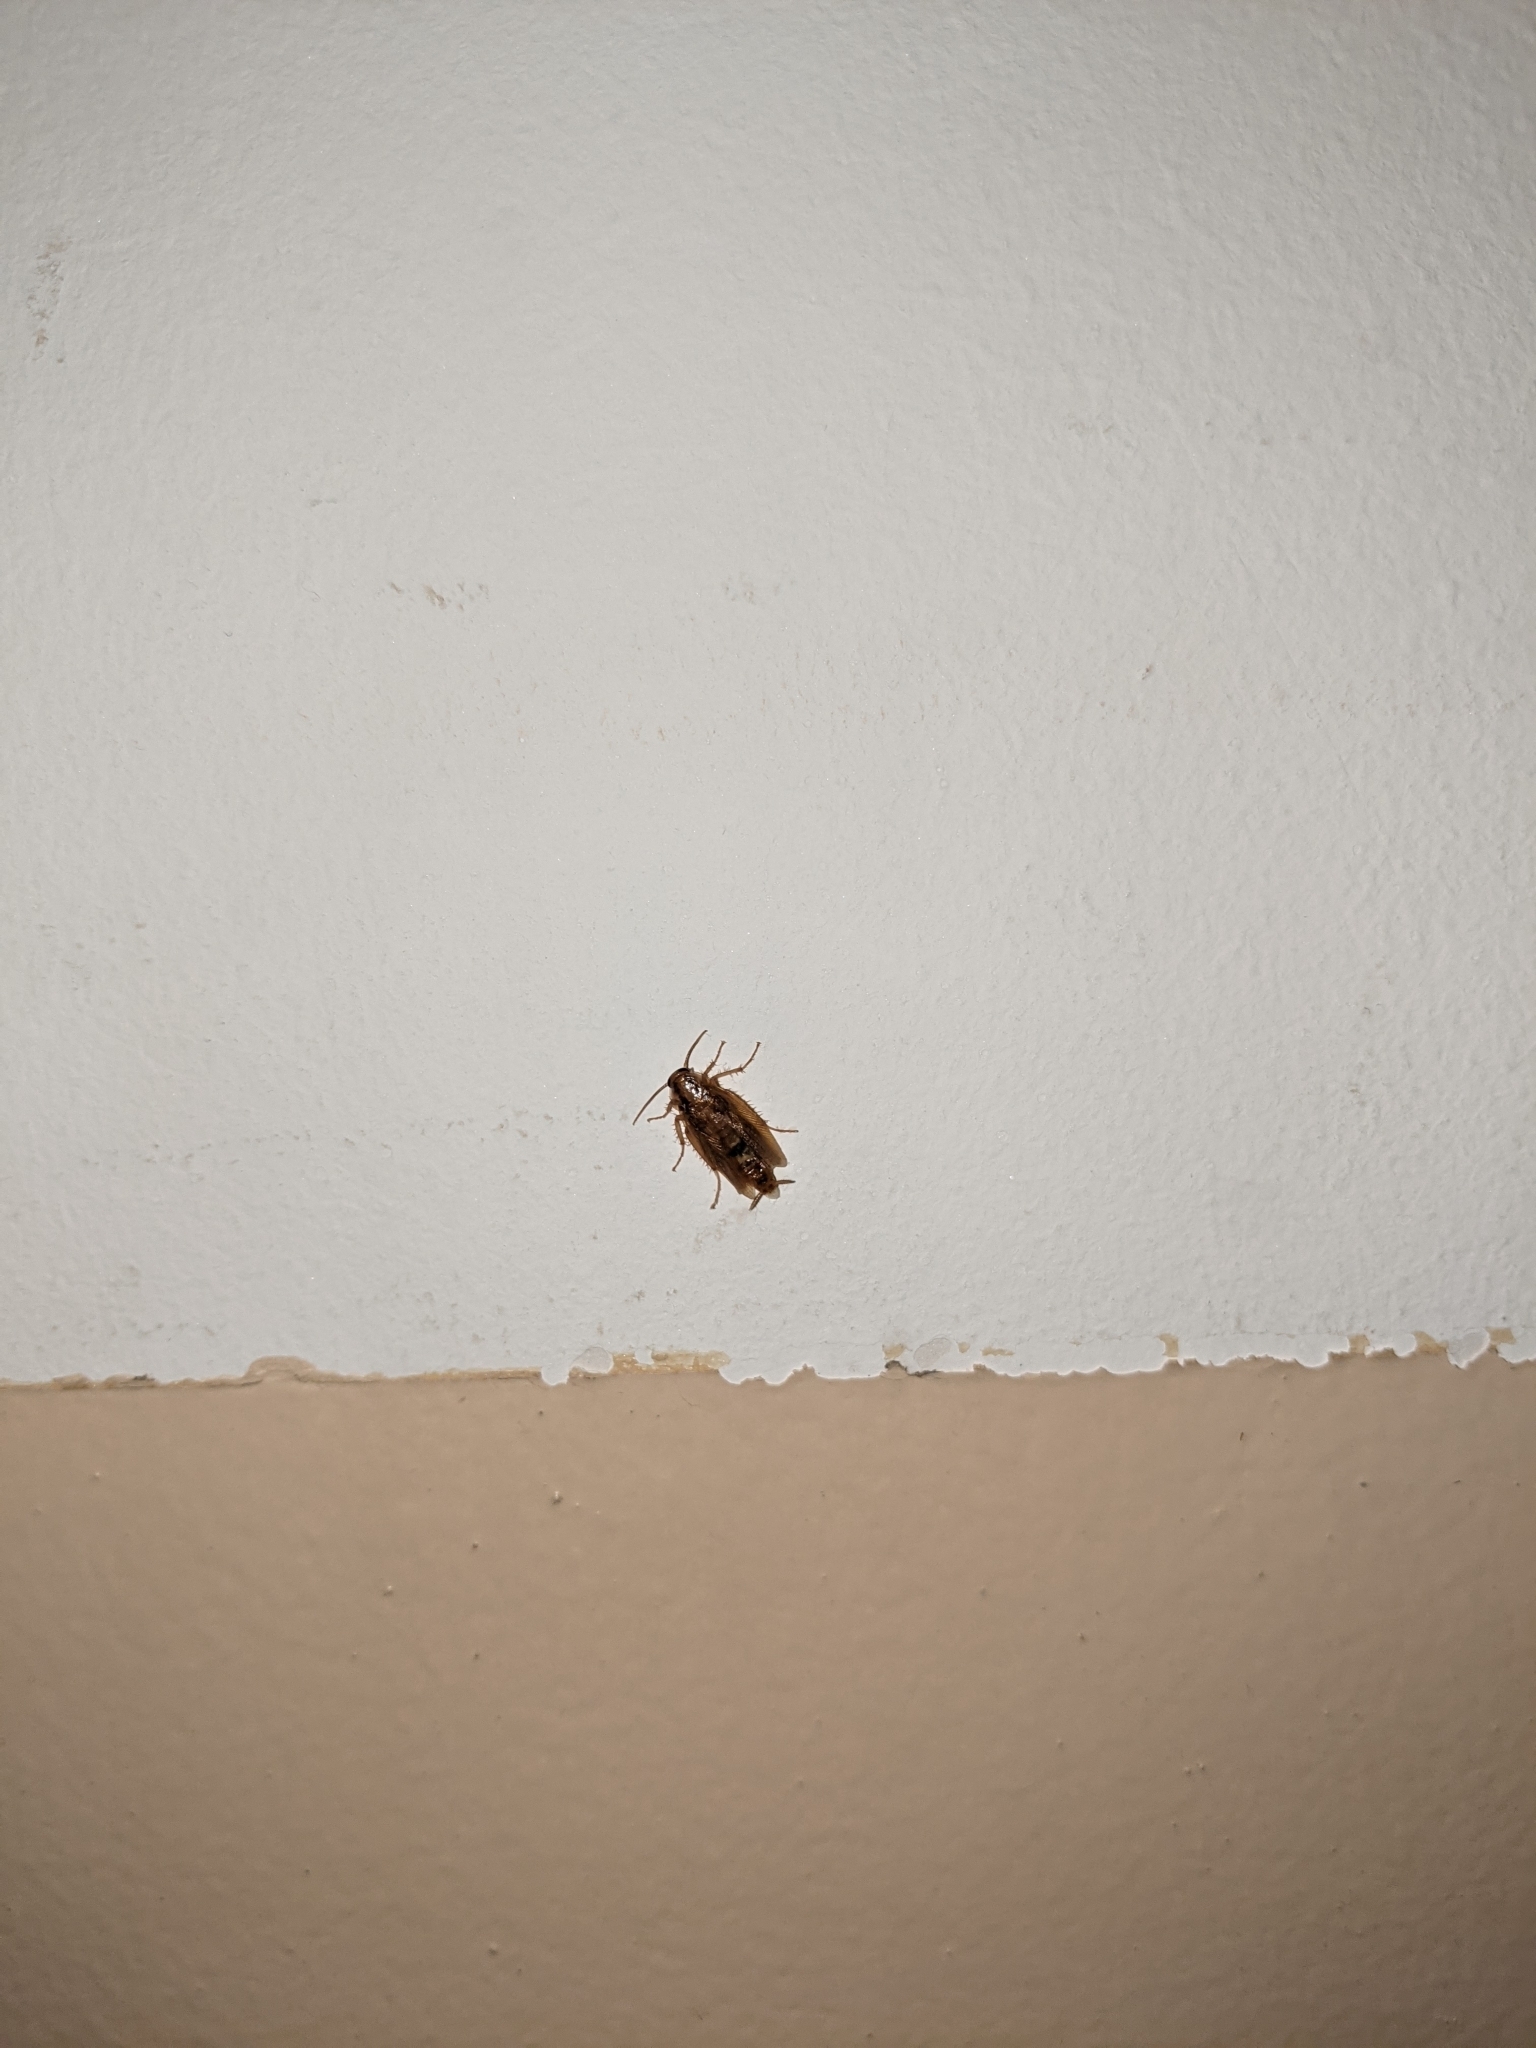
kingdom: Animalia
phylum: Arthropoda
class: Insecta
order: Blattodea
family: Ectobiidae
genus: Blattella
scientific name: Blattella germanica
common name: German cockroach
